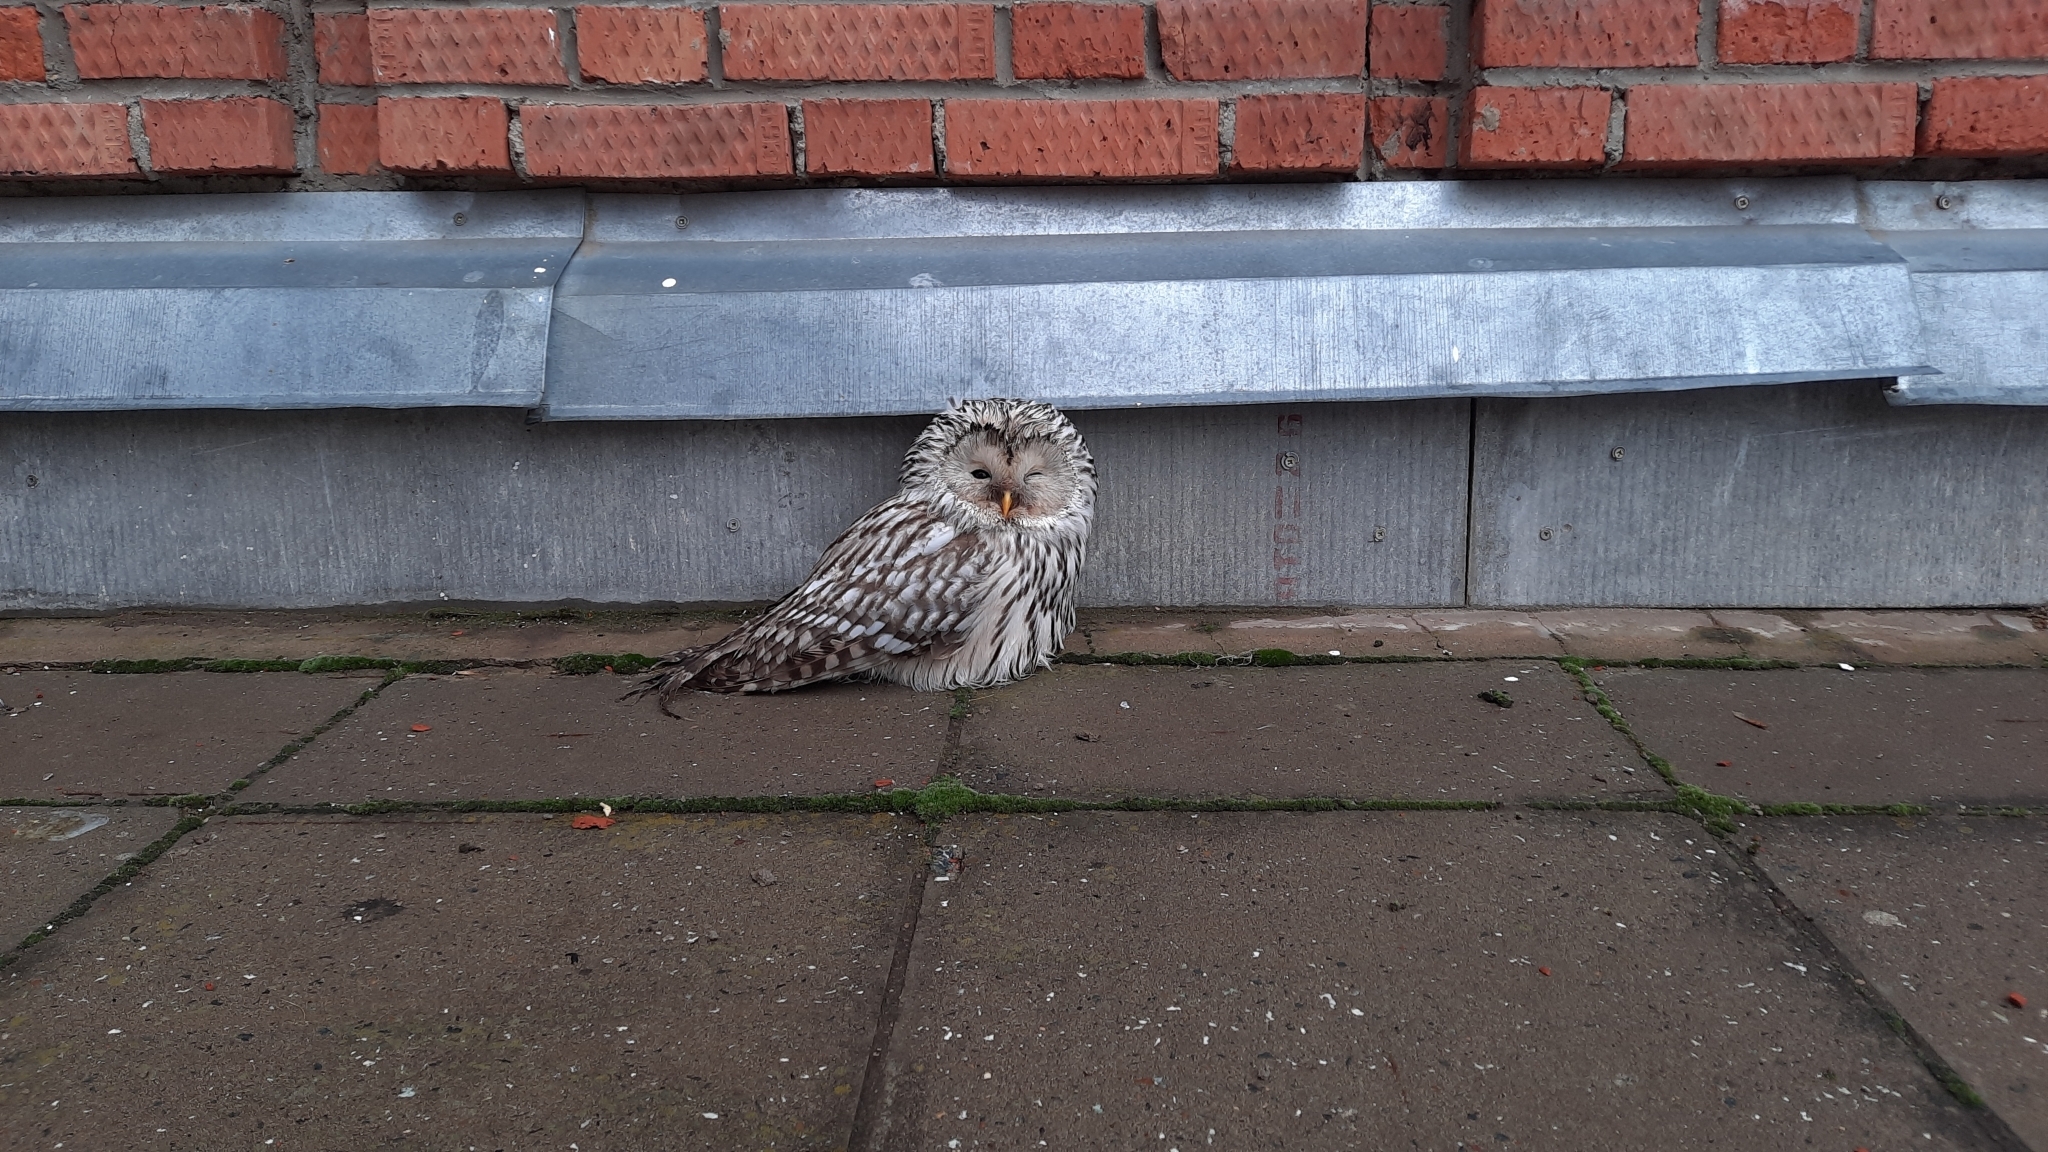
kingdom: Animalia
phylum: Chordata
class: Aves
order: Strigiformes
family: Strigidae
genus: Strix
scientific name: Strix uralensis
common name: Ural owl
